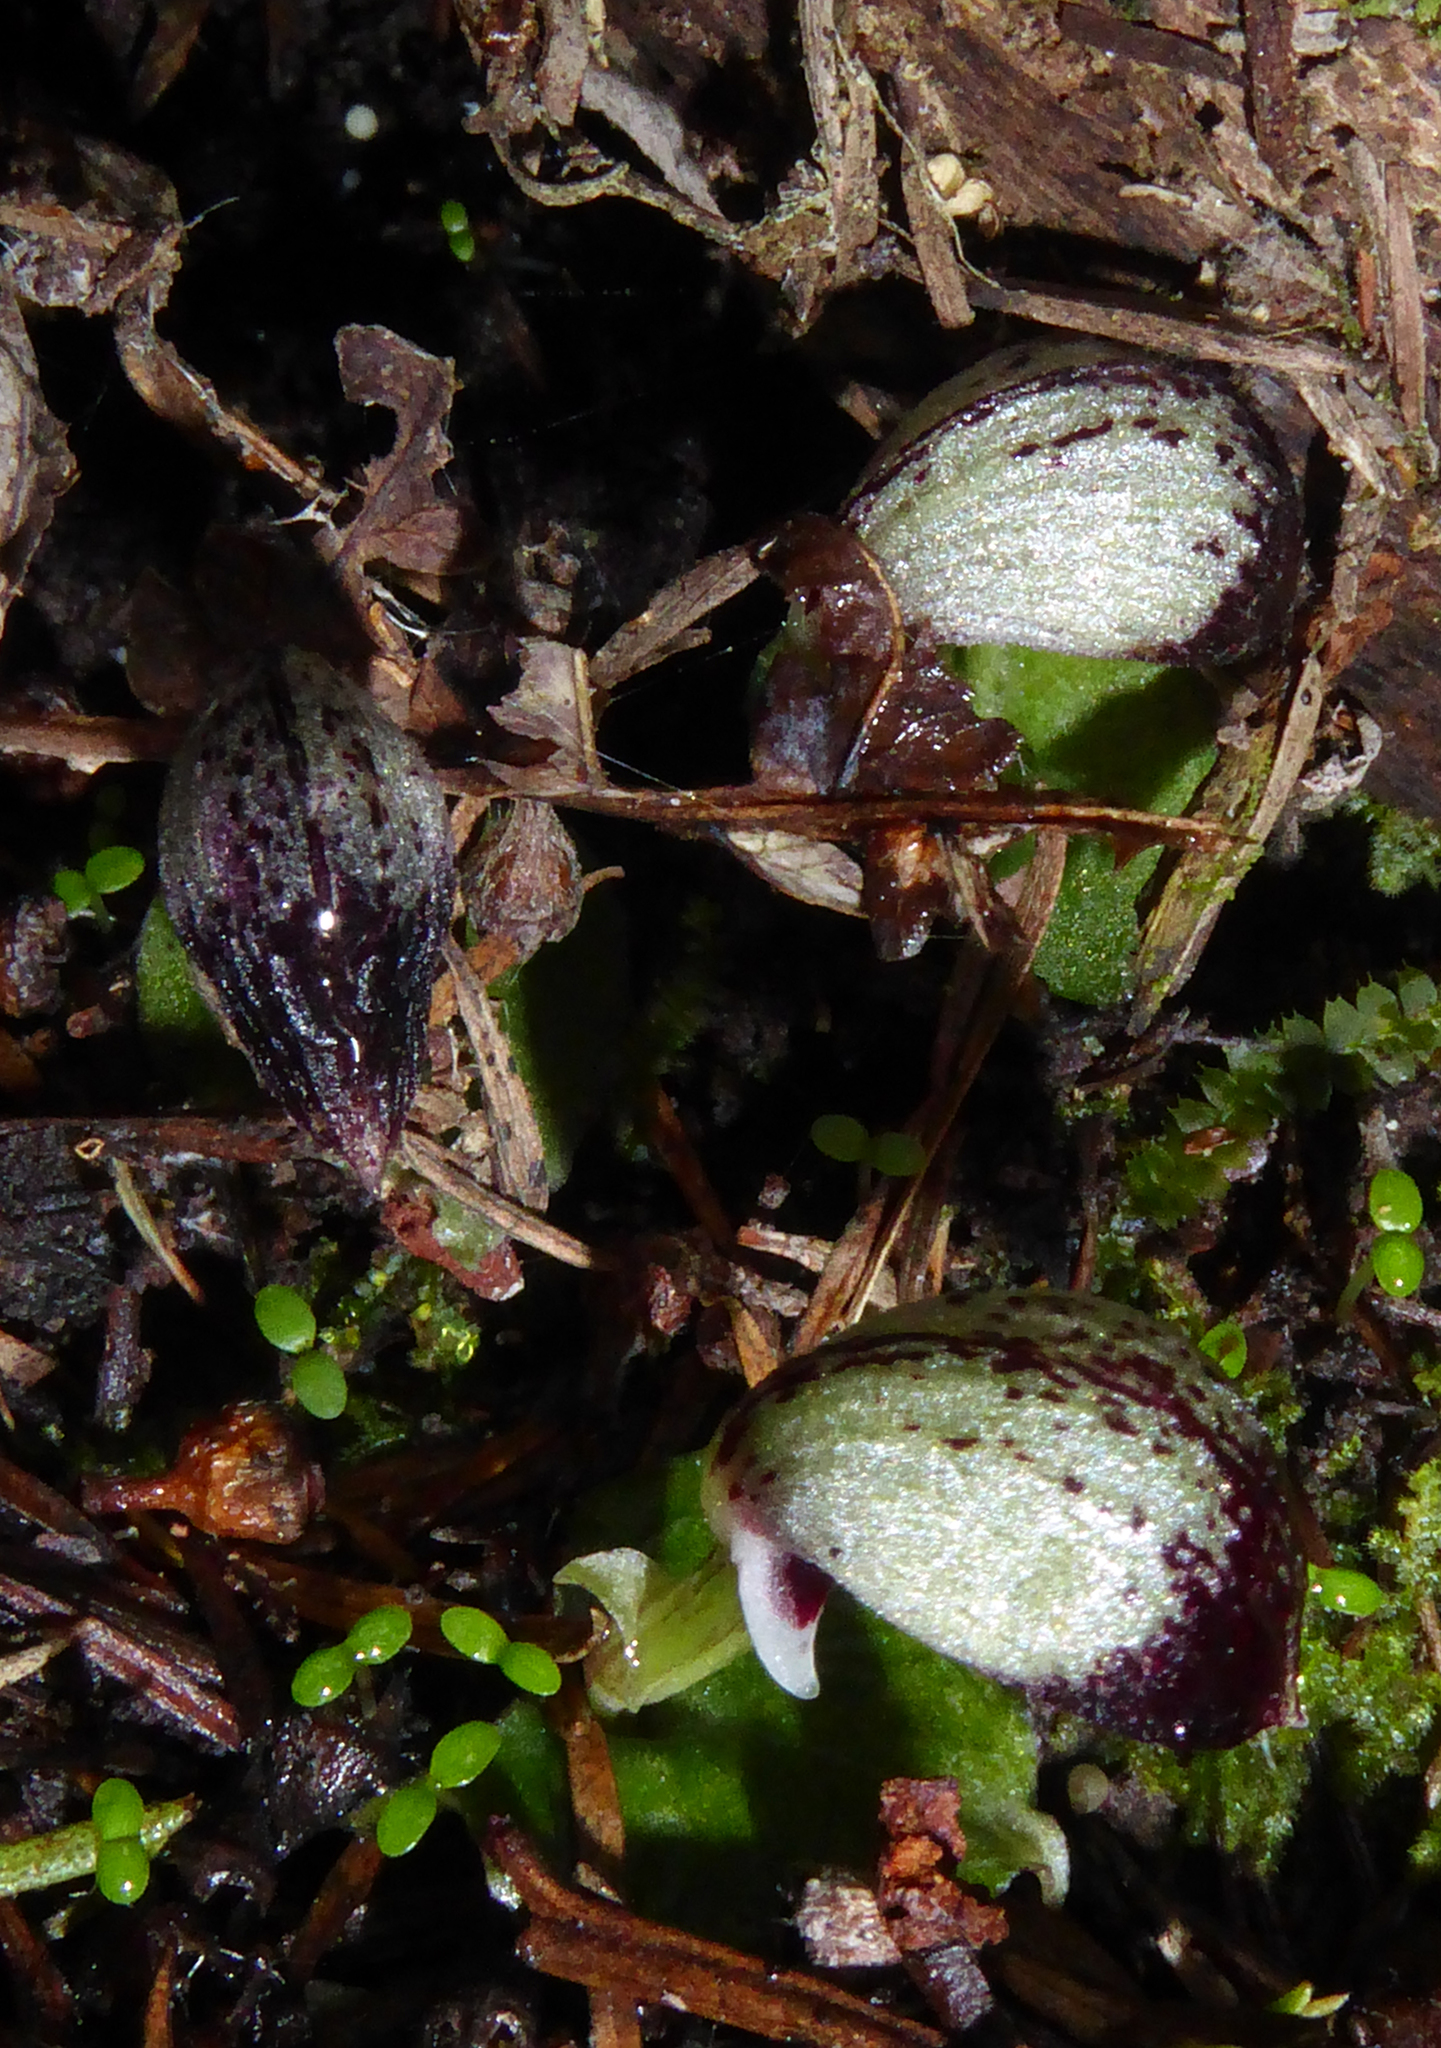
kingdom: Plantae
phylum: Tracheophyta
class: Liliopsida
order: Asparagales
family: Orchidaceae
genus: Corybas
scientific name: Corybas cheesemanii
